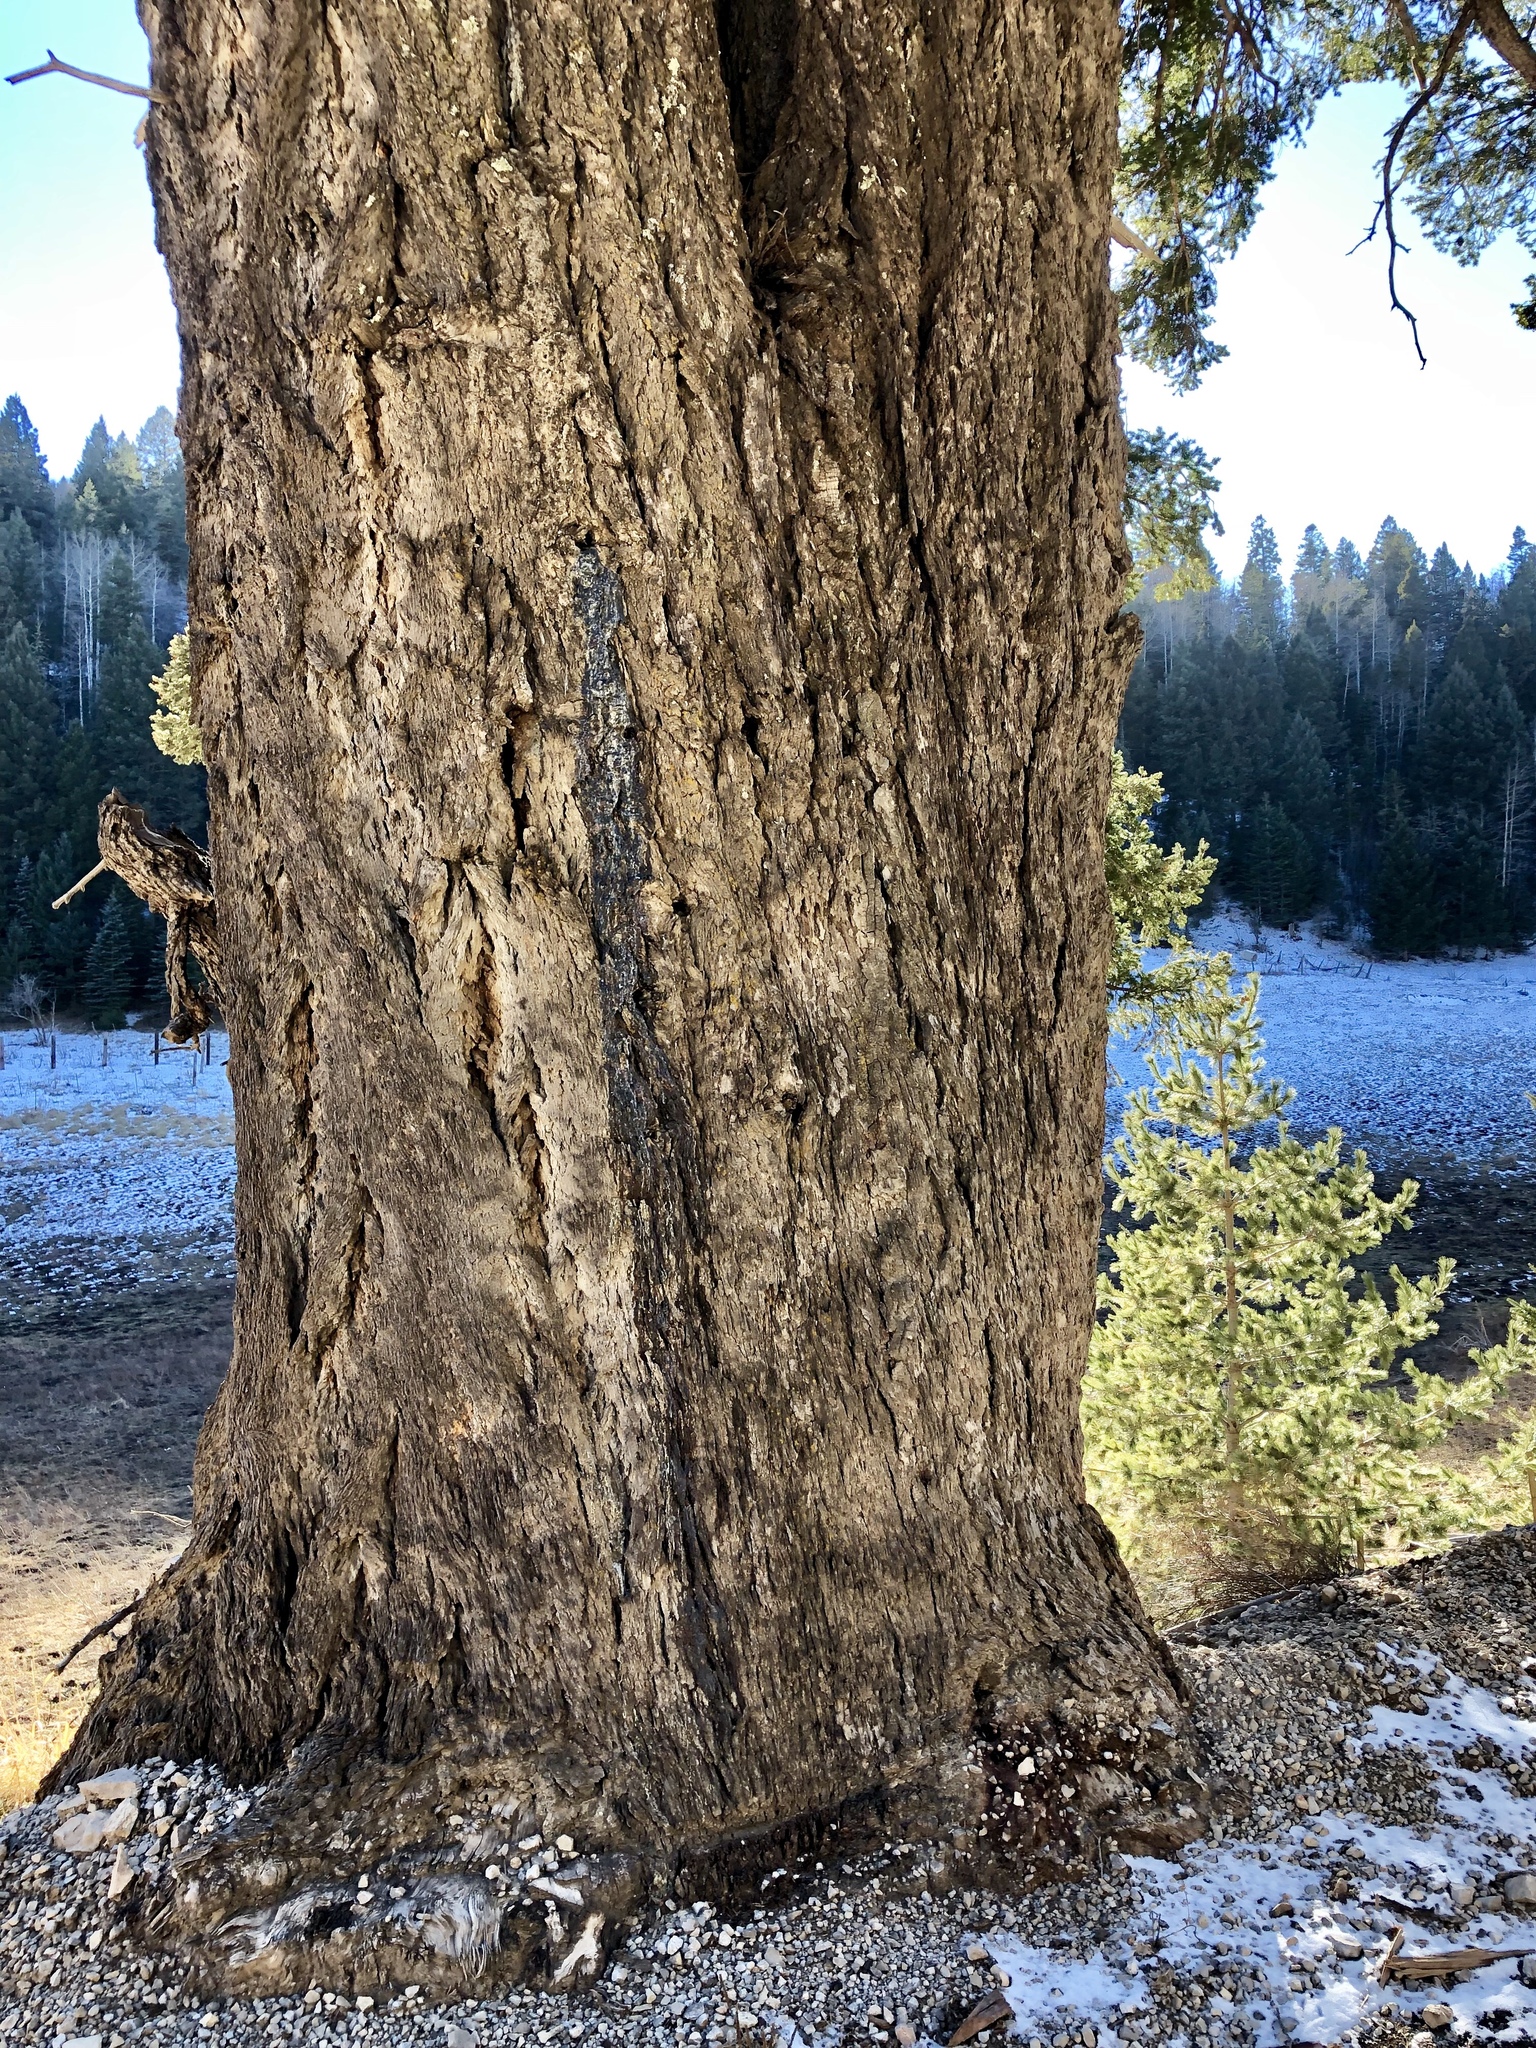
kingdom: Plantae
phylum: Tracheophyta
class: Pinopsida
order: Pinales
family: Pinaceae
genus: Pseudotsuga
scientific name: Pseudotsuga menziesii
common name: Douglas fir
